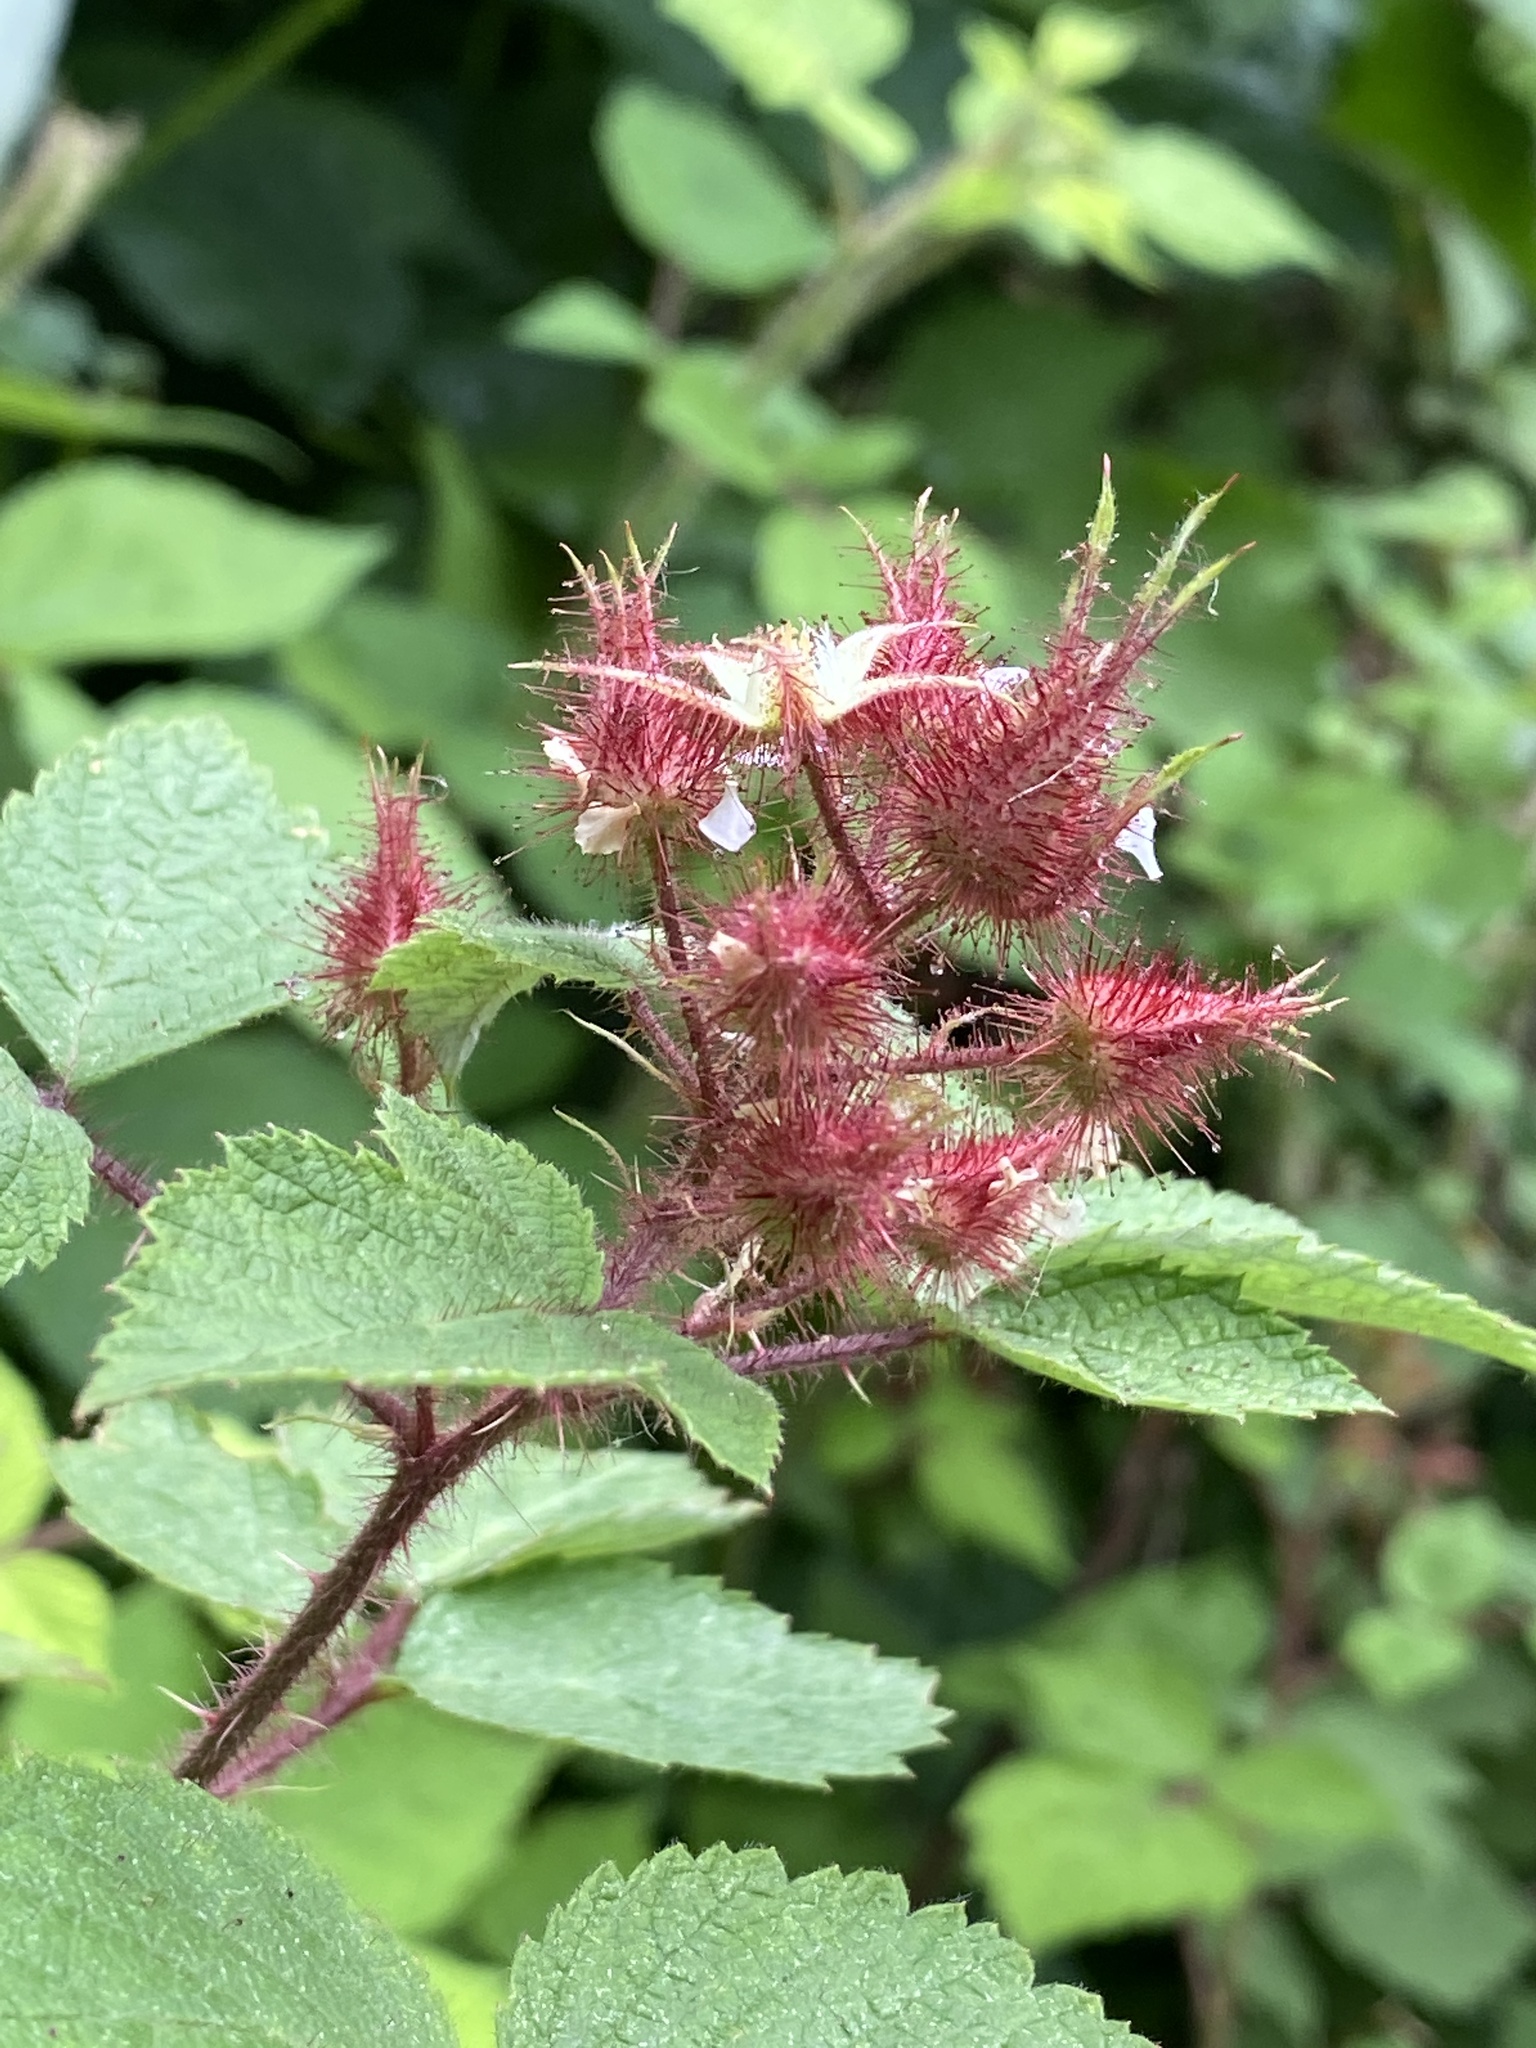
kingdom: Plantae
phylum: Tracheophyta
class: Magnoliopsida
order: Rosales
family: Rosaceae
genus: Rubus
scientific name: Rubus phoenicolasius
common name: Japanese wineberry
